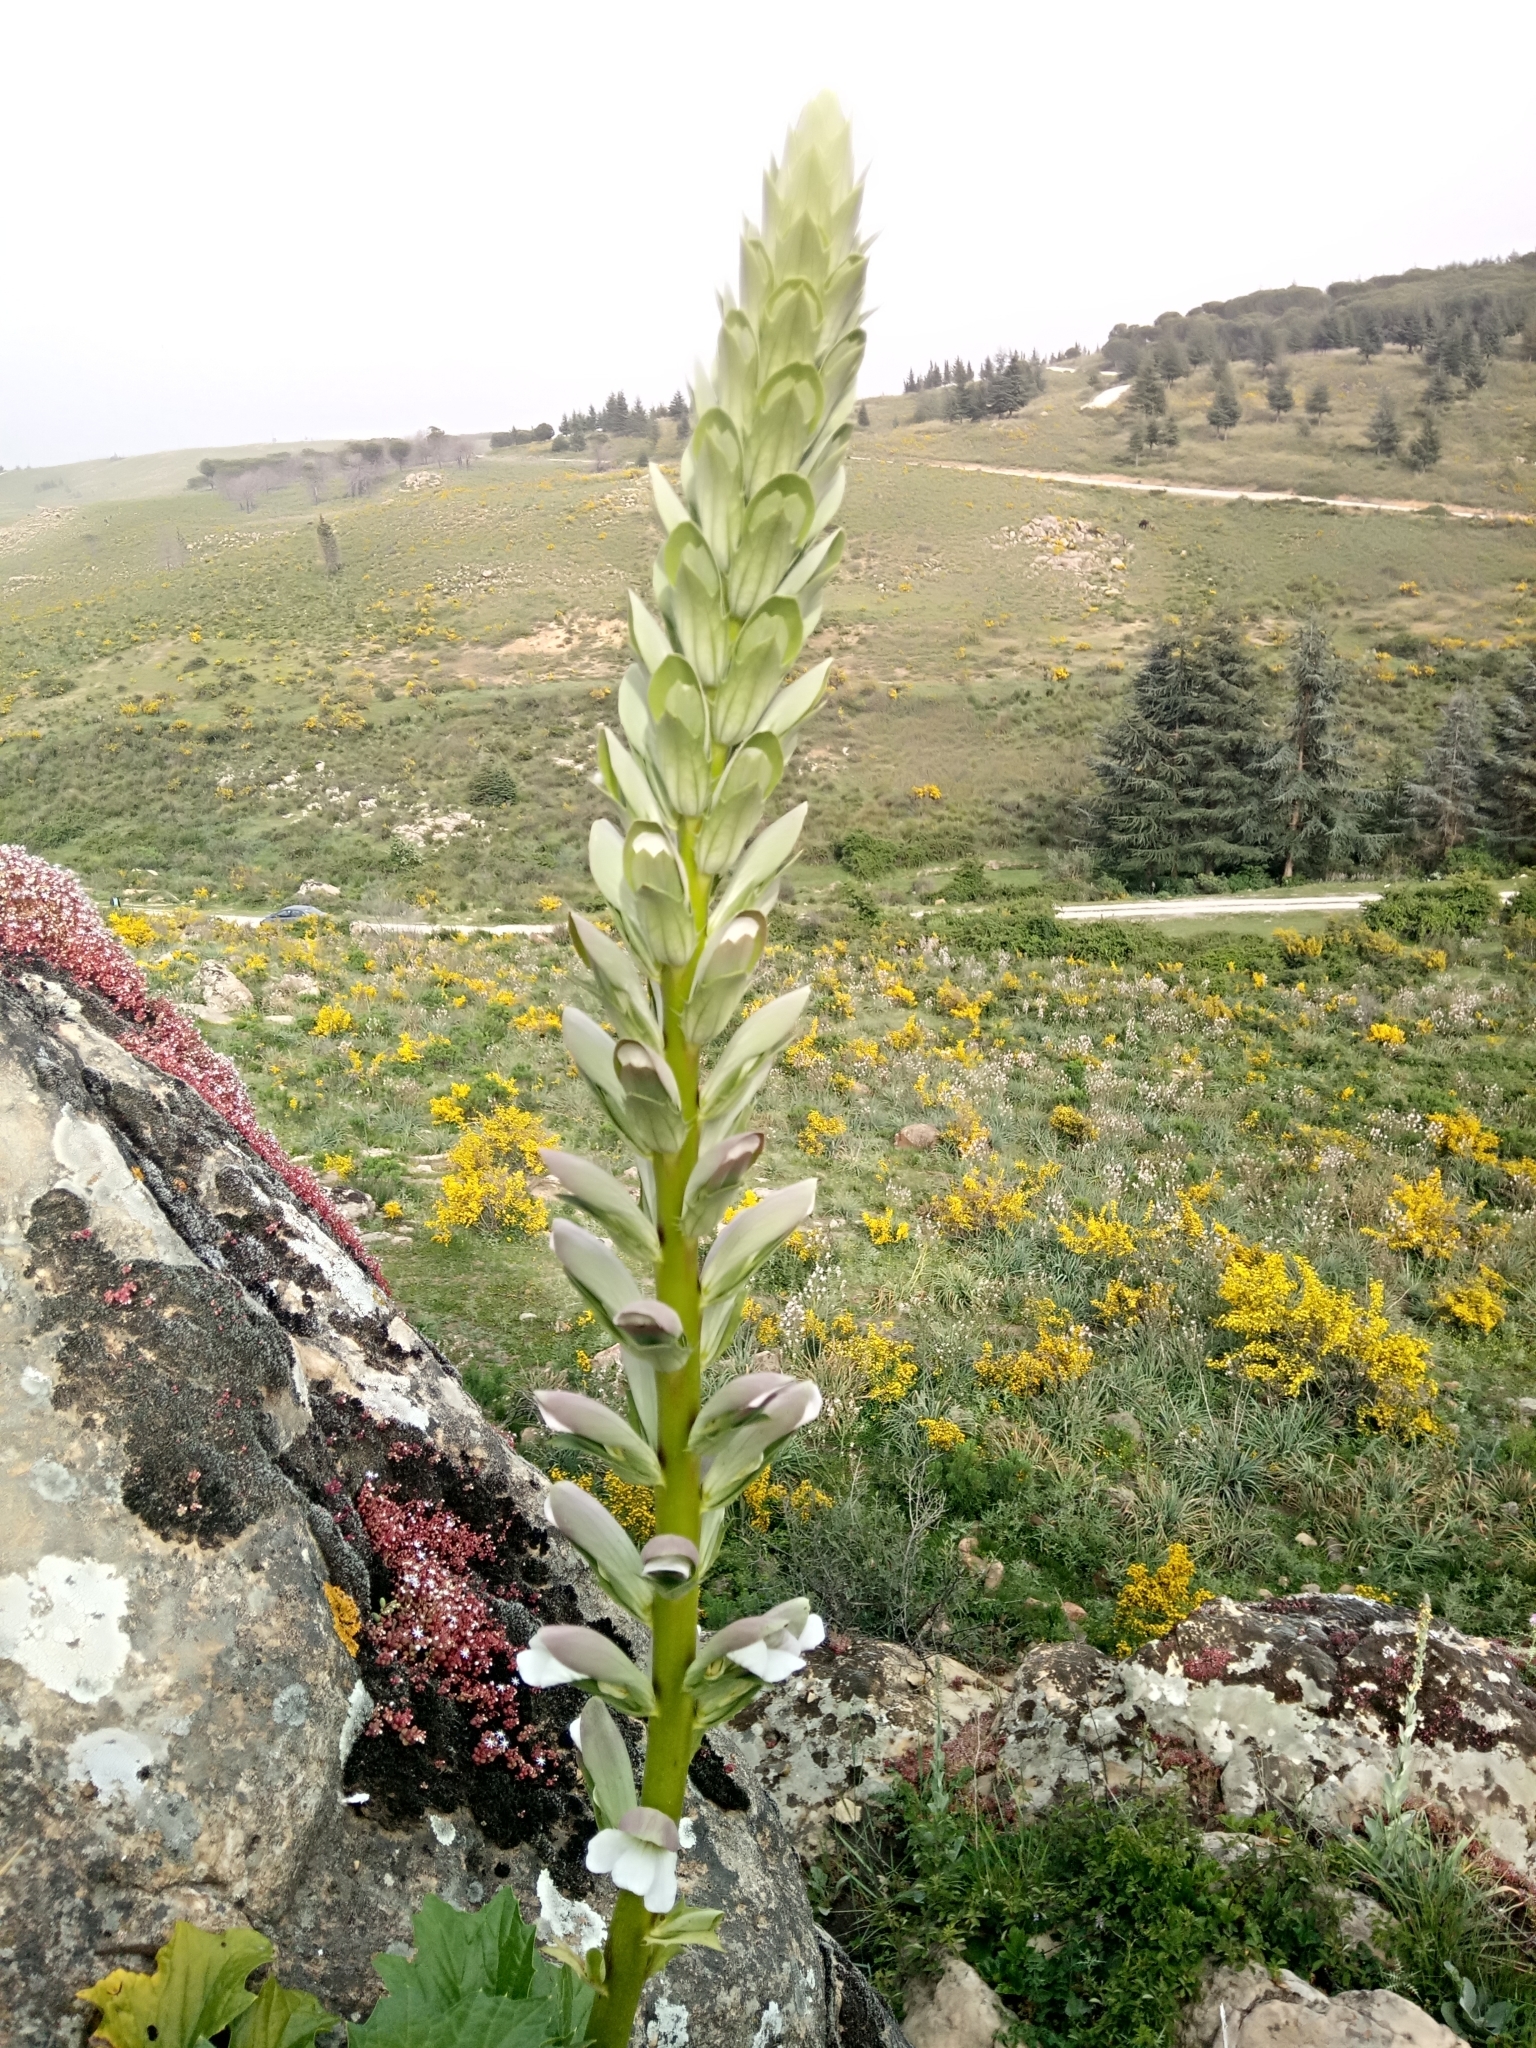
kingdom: Plantae
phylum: Tracheophyta
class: Magnoliopsida
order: Lamiales
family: Acanthaceae
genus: Acanthus
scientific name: Acanthus mollis
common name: Bear's-breech
